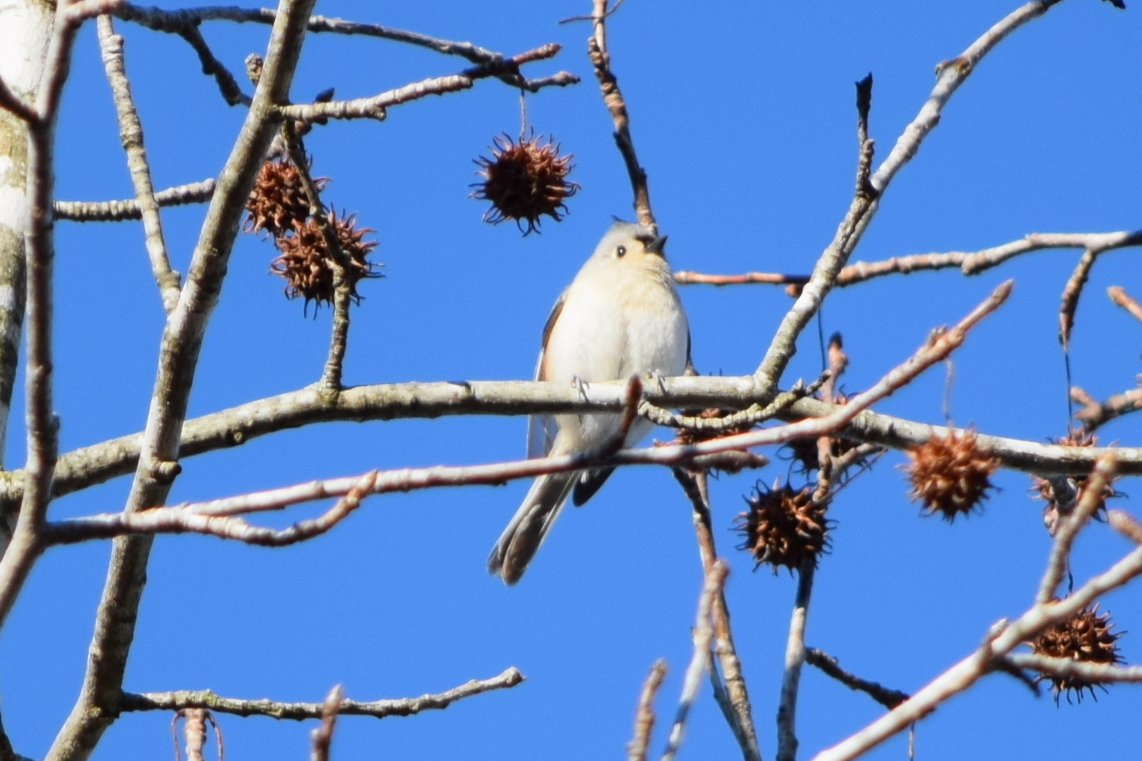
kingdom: Animalia
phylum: Chordata
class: Aves
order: Passeriformes
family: Paridae
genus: Baeolophus
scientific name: Baeolophus bicolor
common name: Tufted titmouse
